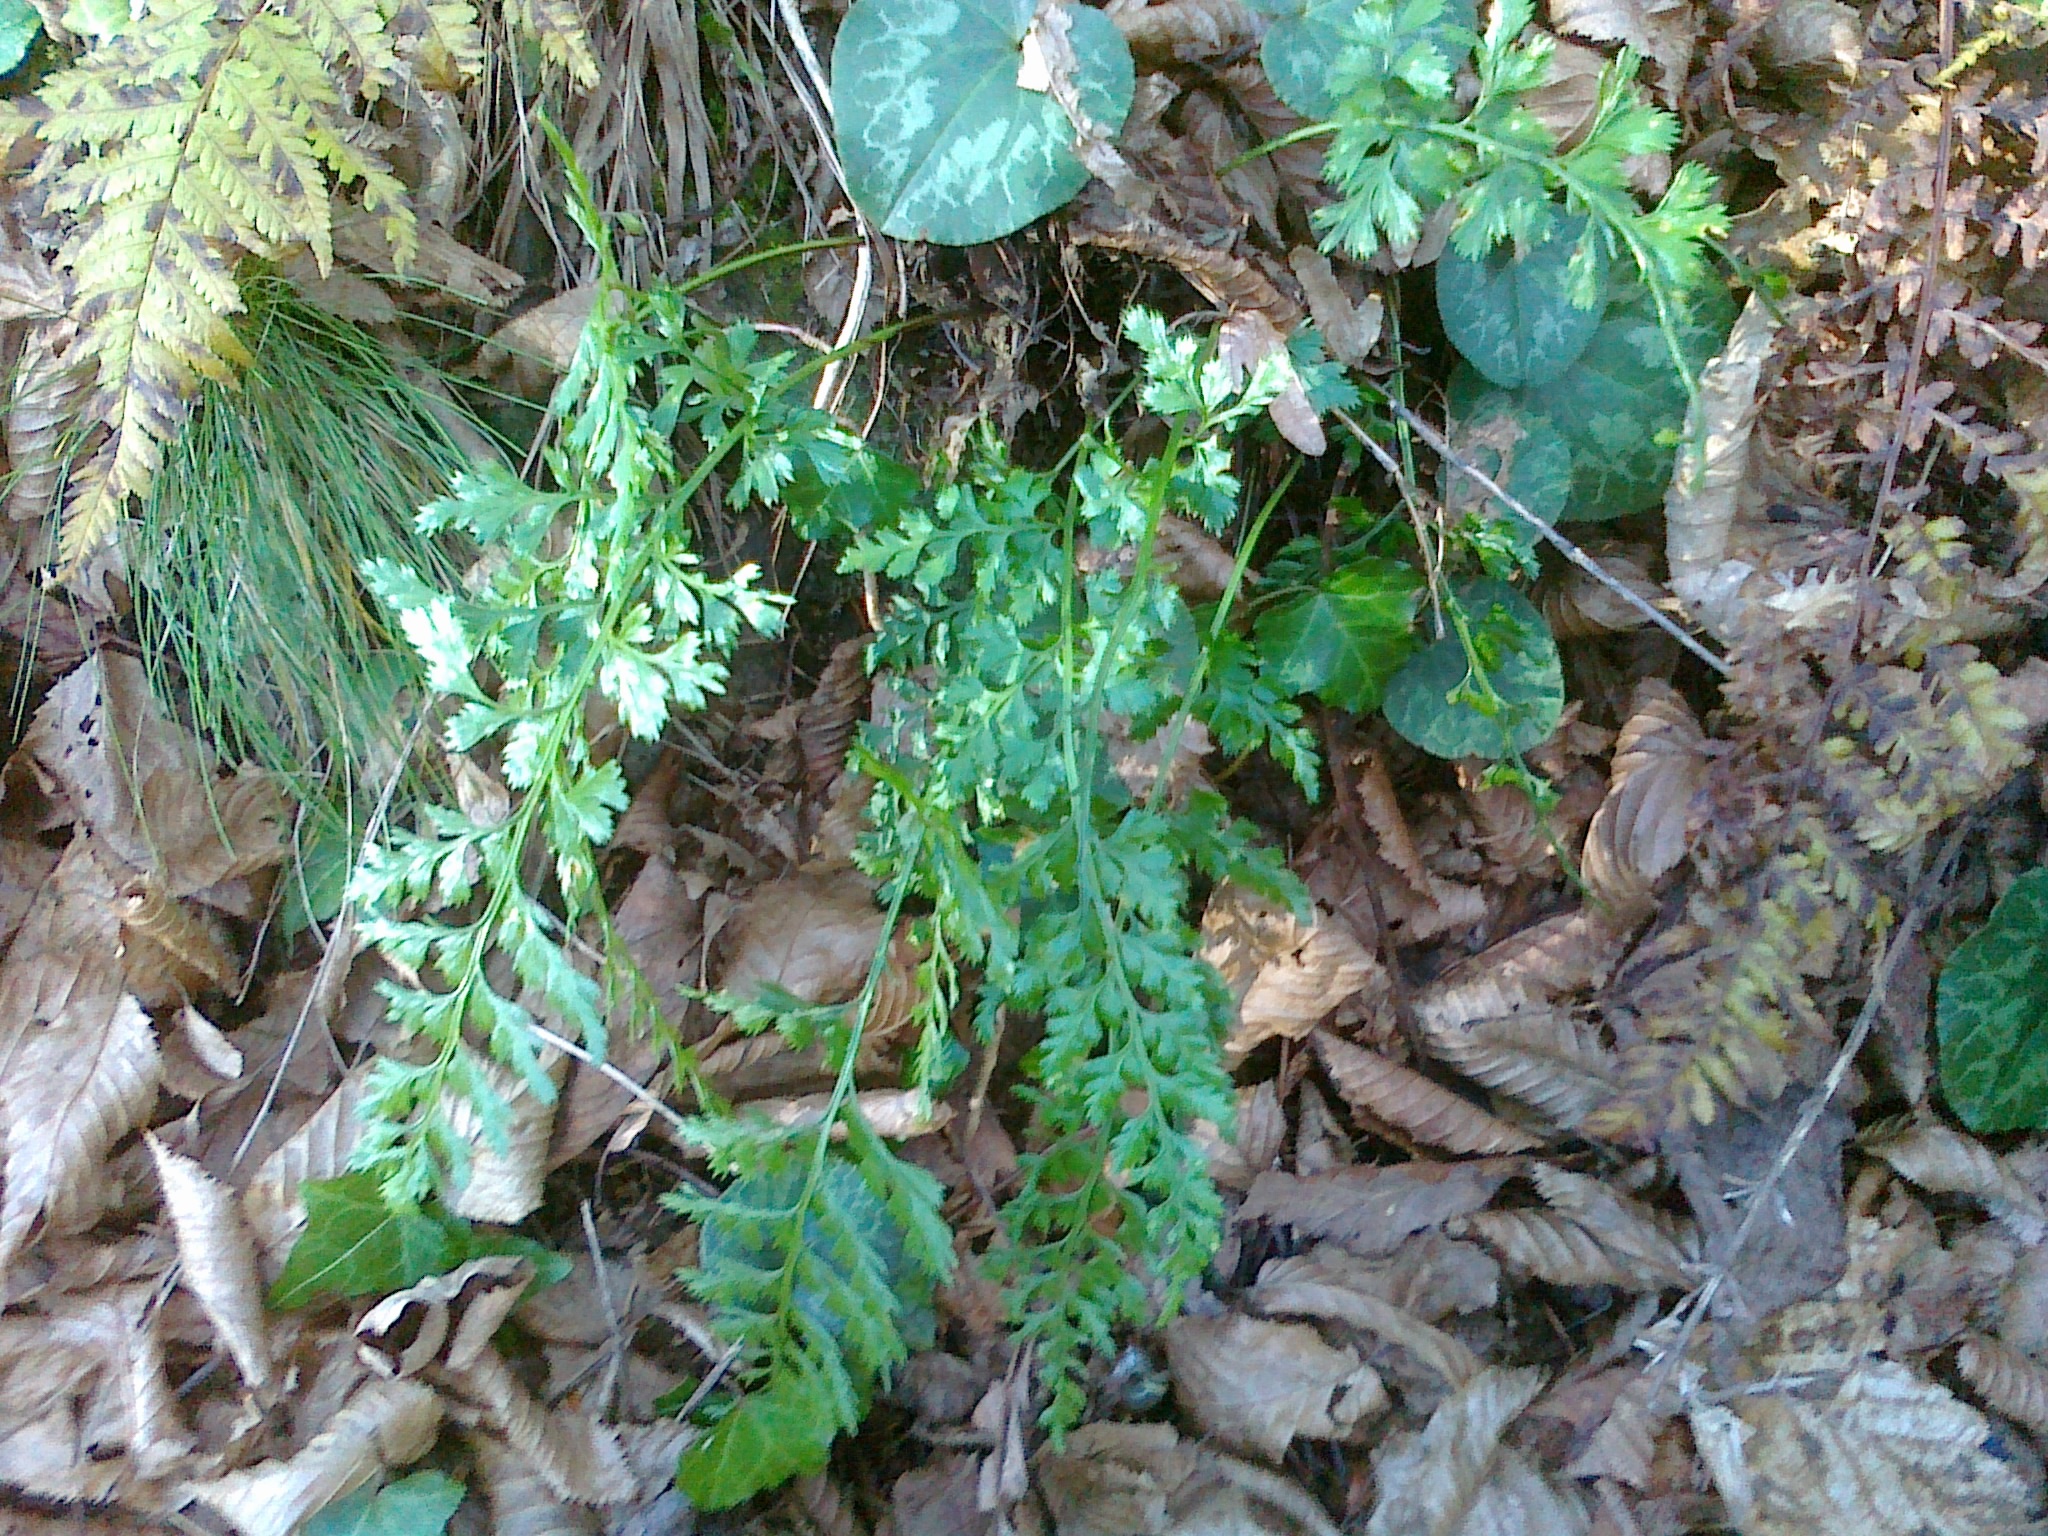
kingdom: Plantae
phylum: Tracheophyta
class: Polypodiopsida
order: Polypodiales
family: Aspleniaceae
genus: Asplenium
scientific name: Asplenium adiantum-nigrum
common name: Black spleenwort
